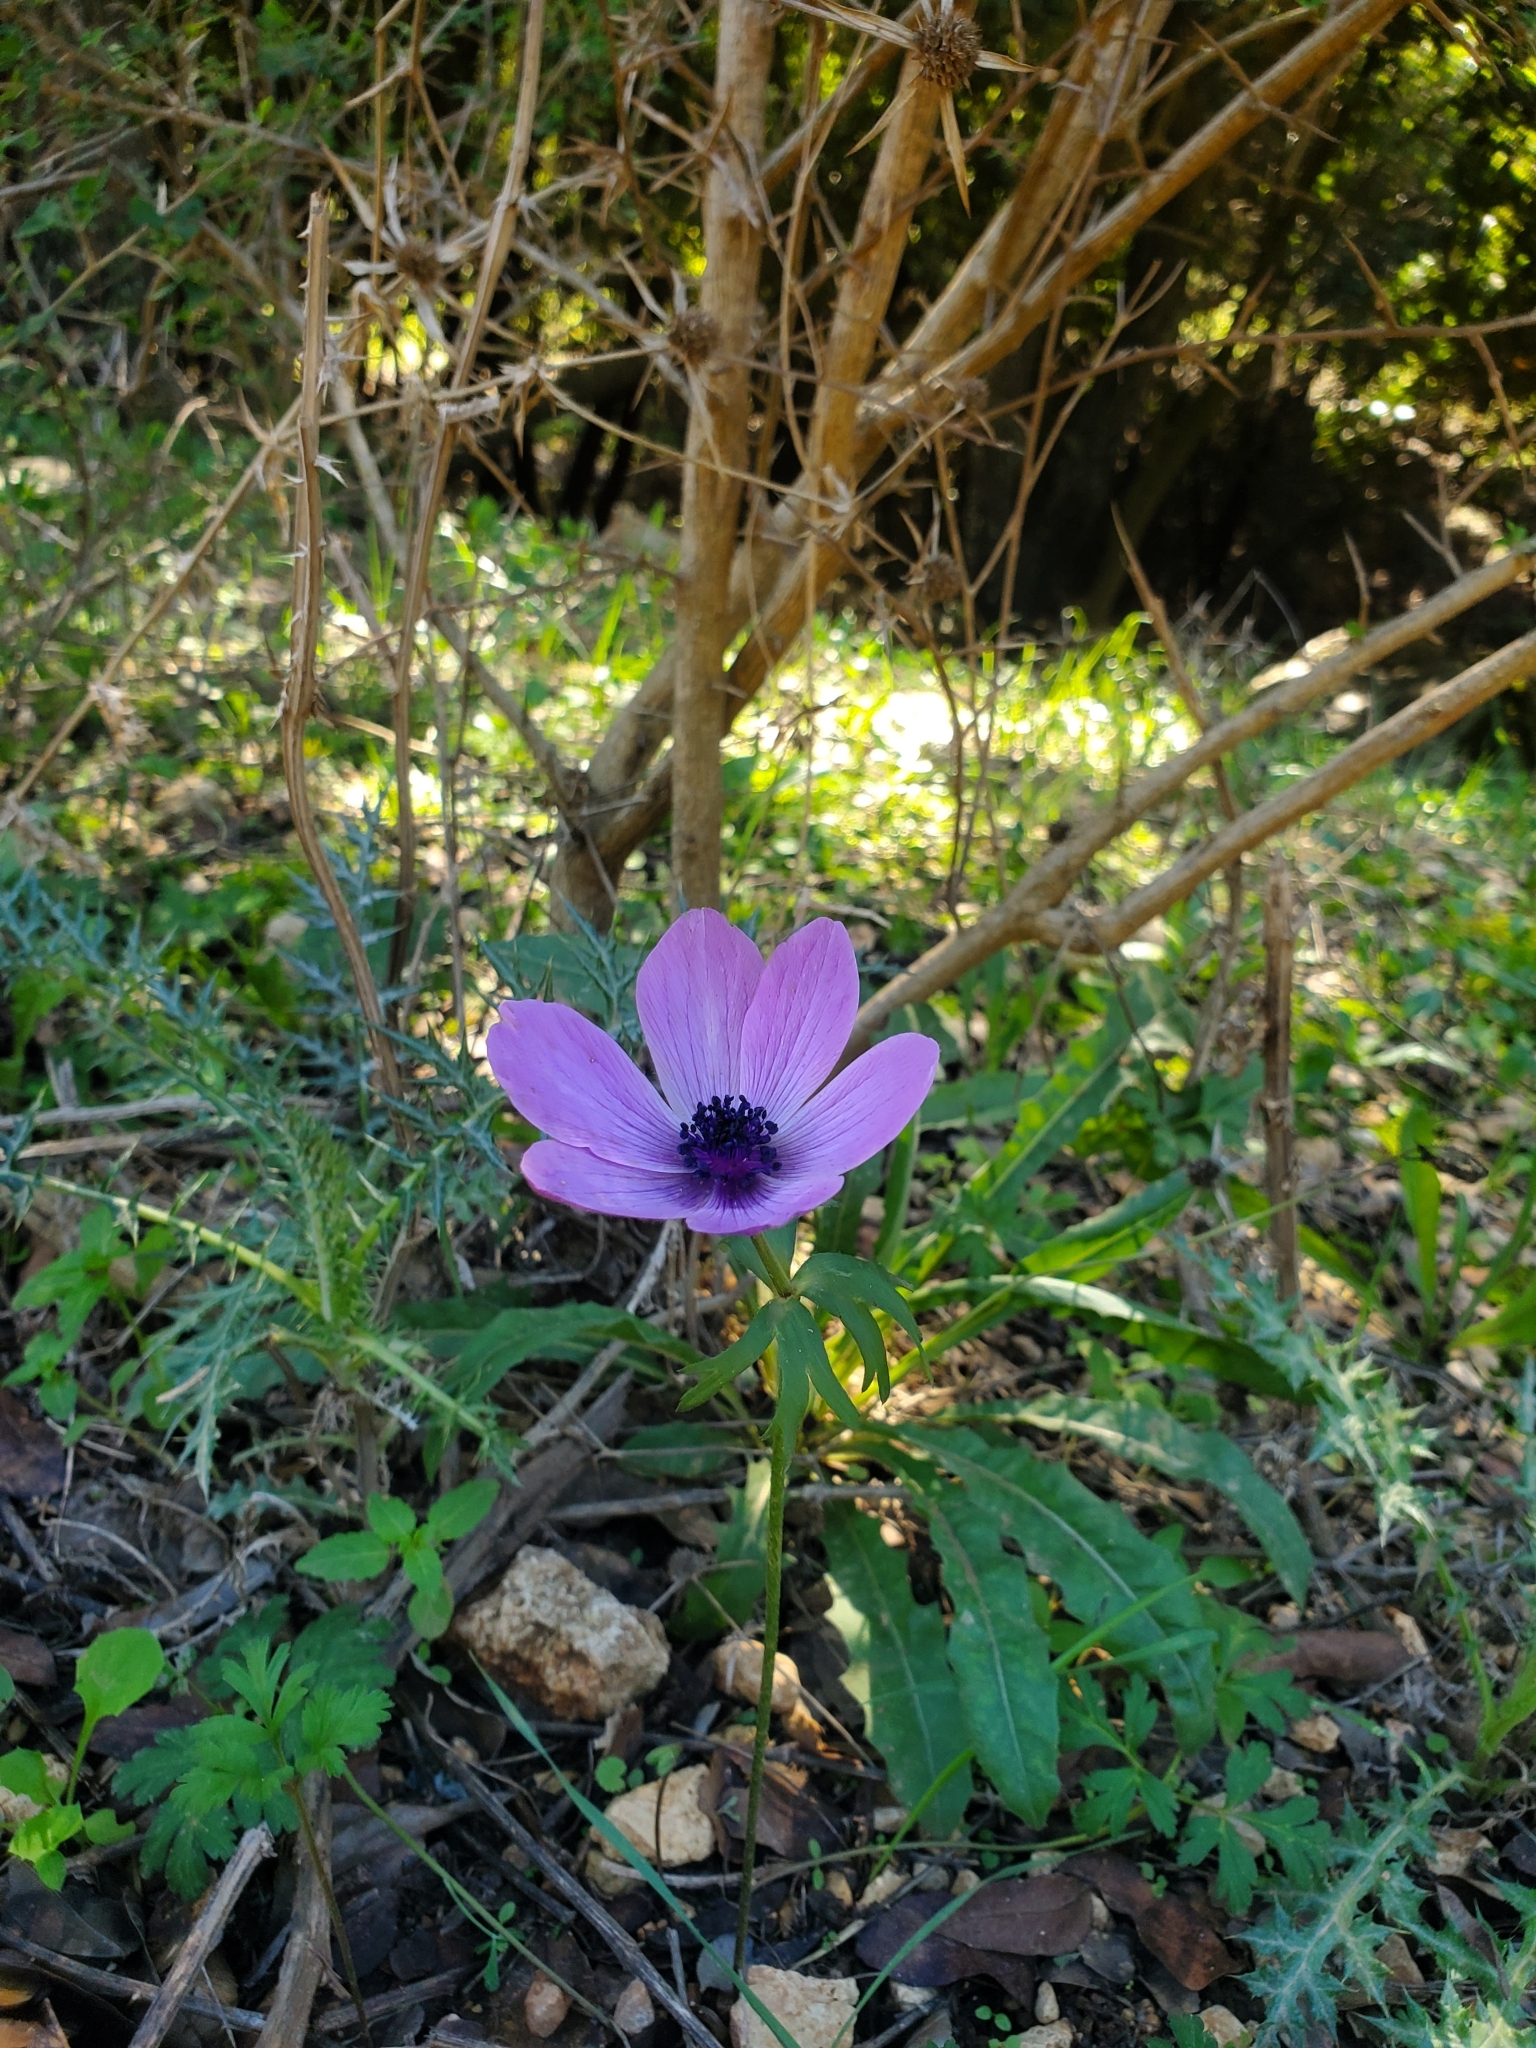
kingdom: Plantae
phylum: Tracheophyta
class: Magnoliopsida
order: Ranunculales
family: Ranunculaceae
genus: Anemone
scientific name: Anemone coronaria
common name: Poppy anemone
